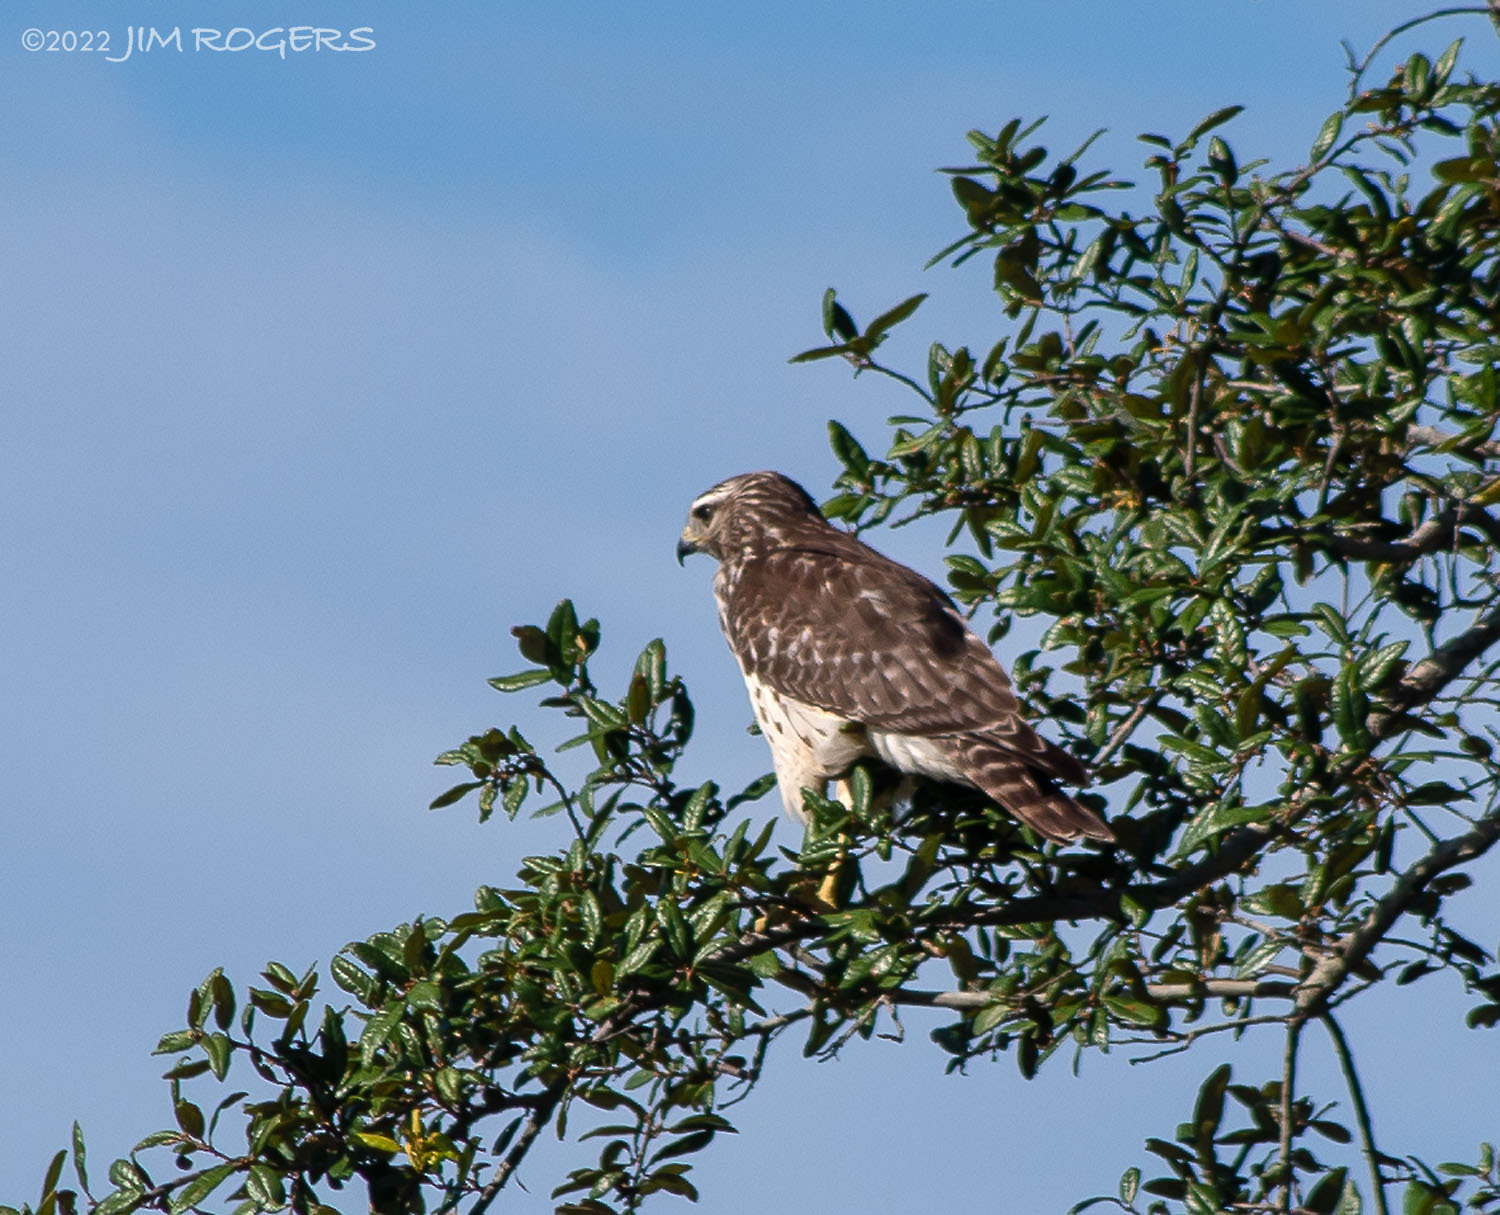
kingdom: Animalia
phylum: Chordata
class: Aves
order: Accipitriformes
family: Accipitridae
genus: Buteo
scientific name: Buteo lineatus
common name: Red-shouldered hawk
